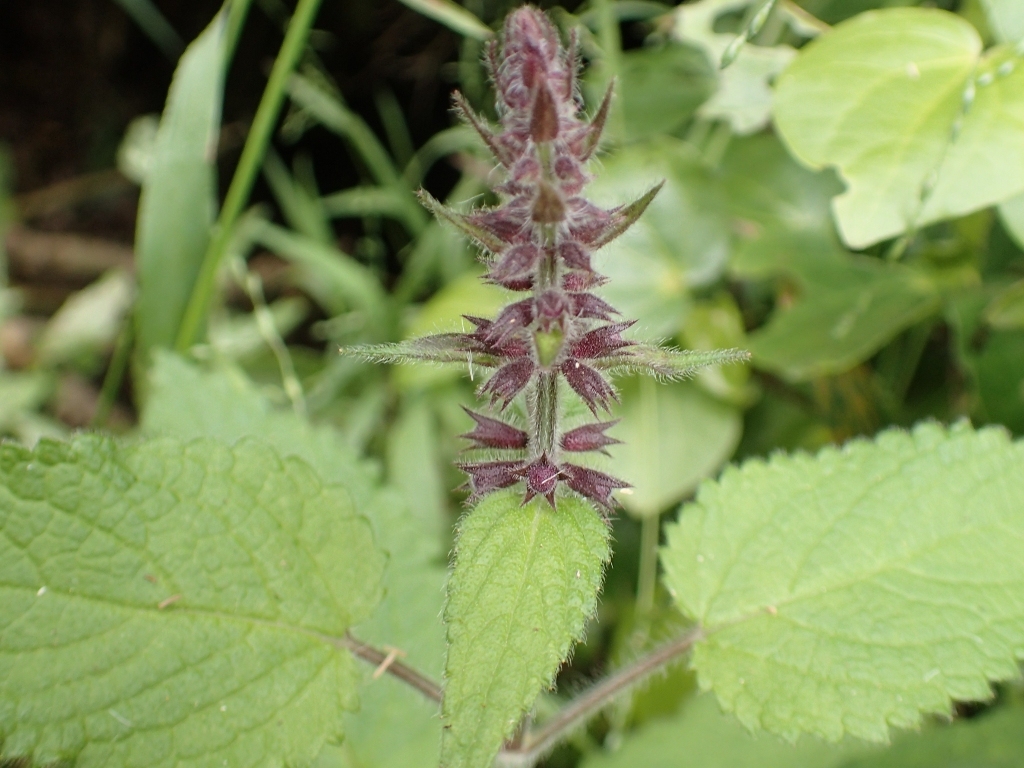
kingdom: Plantae
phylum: Tracheophyta
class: Magnoliopsida
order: Lamiales
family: Lamiaceae
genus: Stachys
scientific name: Stachys sylvatica
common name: Hedge woundwort
